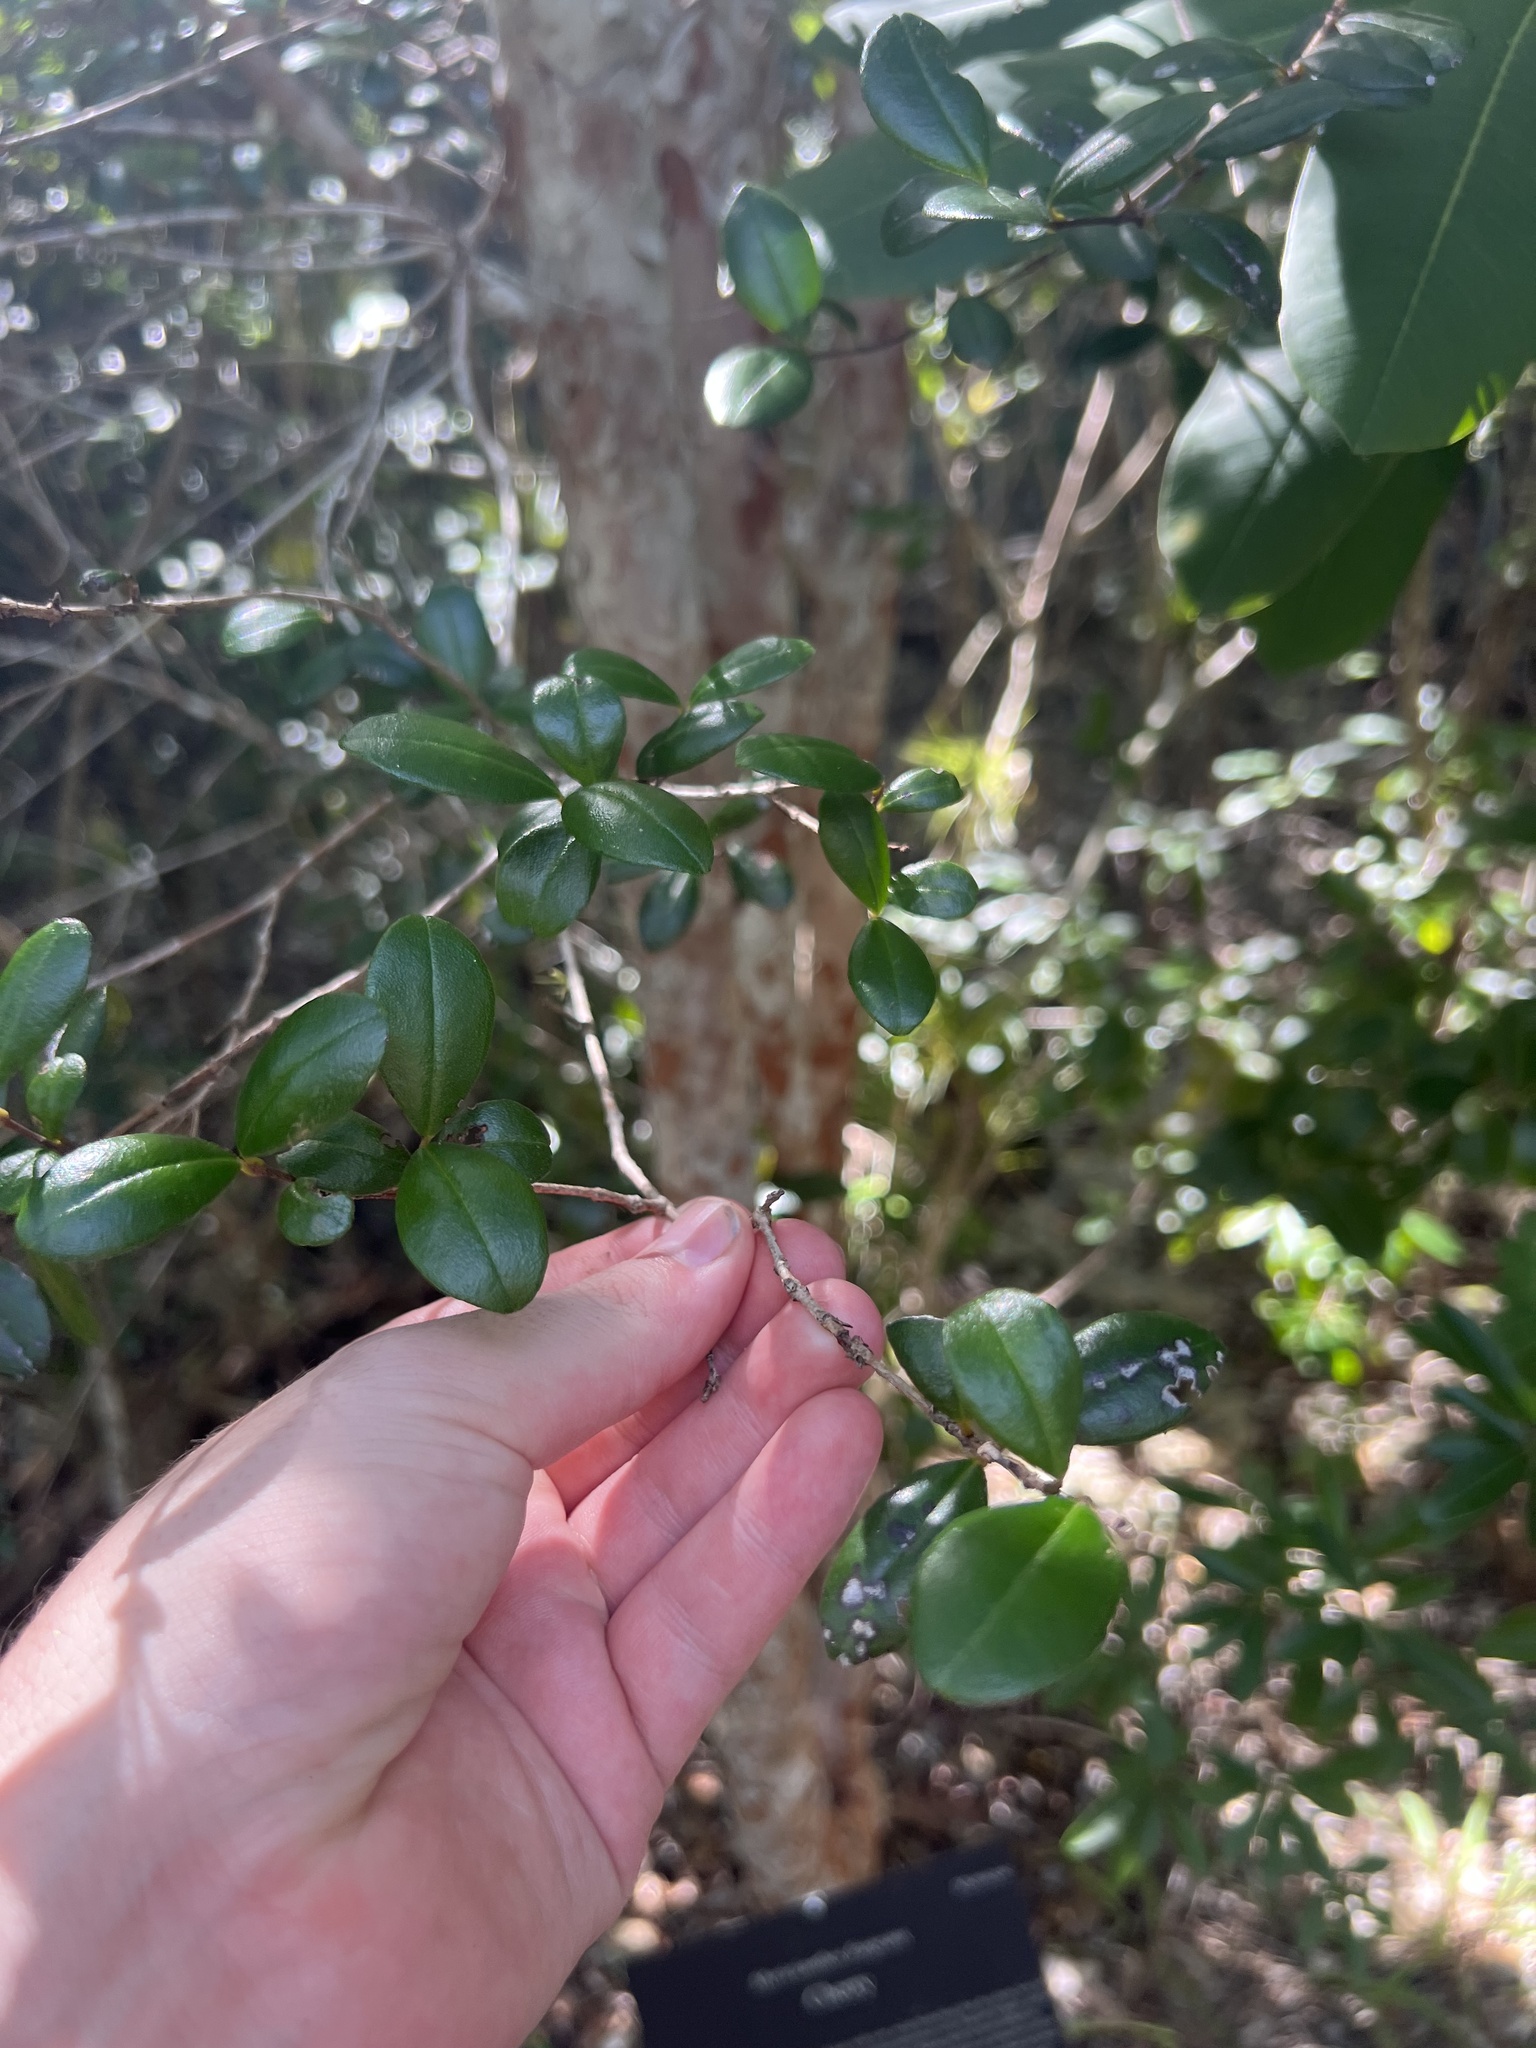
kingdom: Plantae
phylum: Tracheophyta
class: Magnoliopsida
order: Myrtales
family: Myrtaceae
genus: Myrcianthes
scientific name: Myrcianthes fragrans
